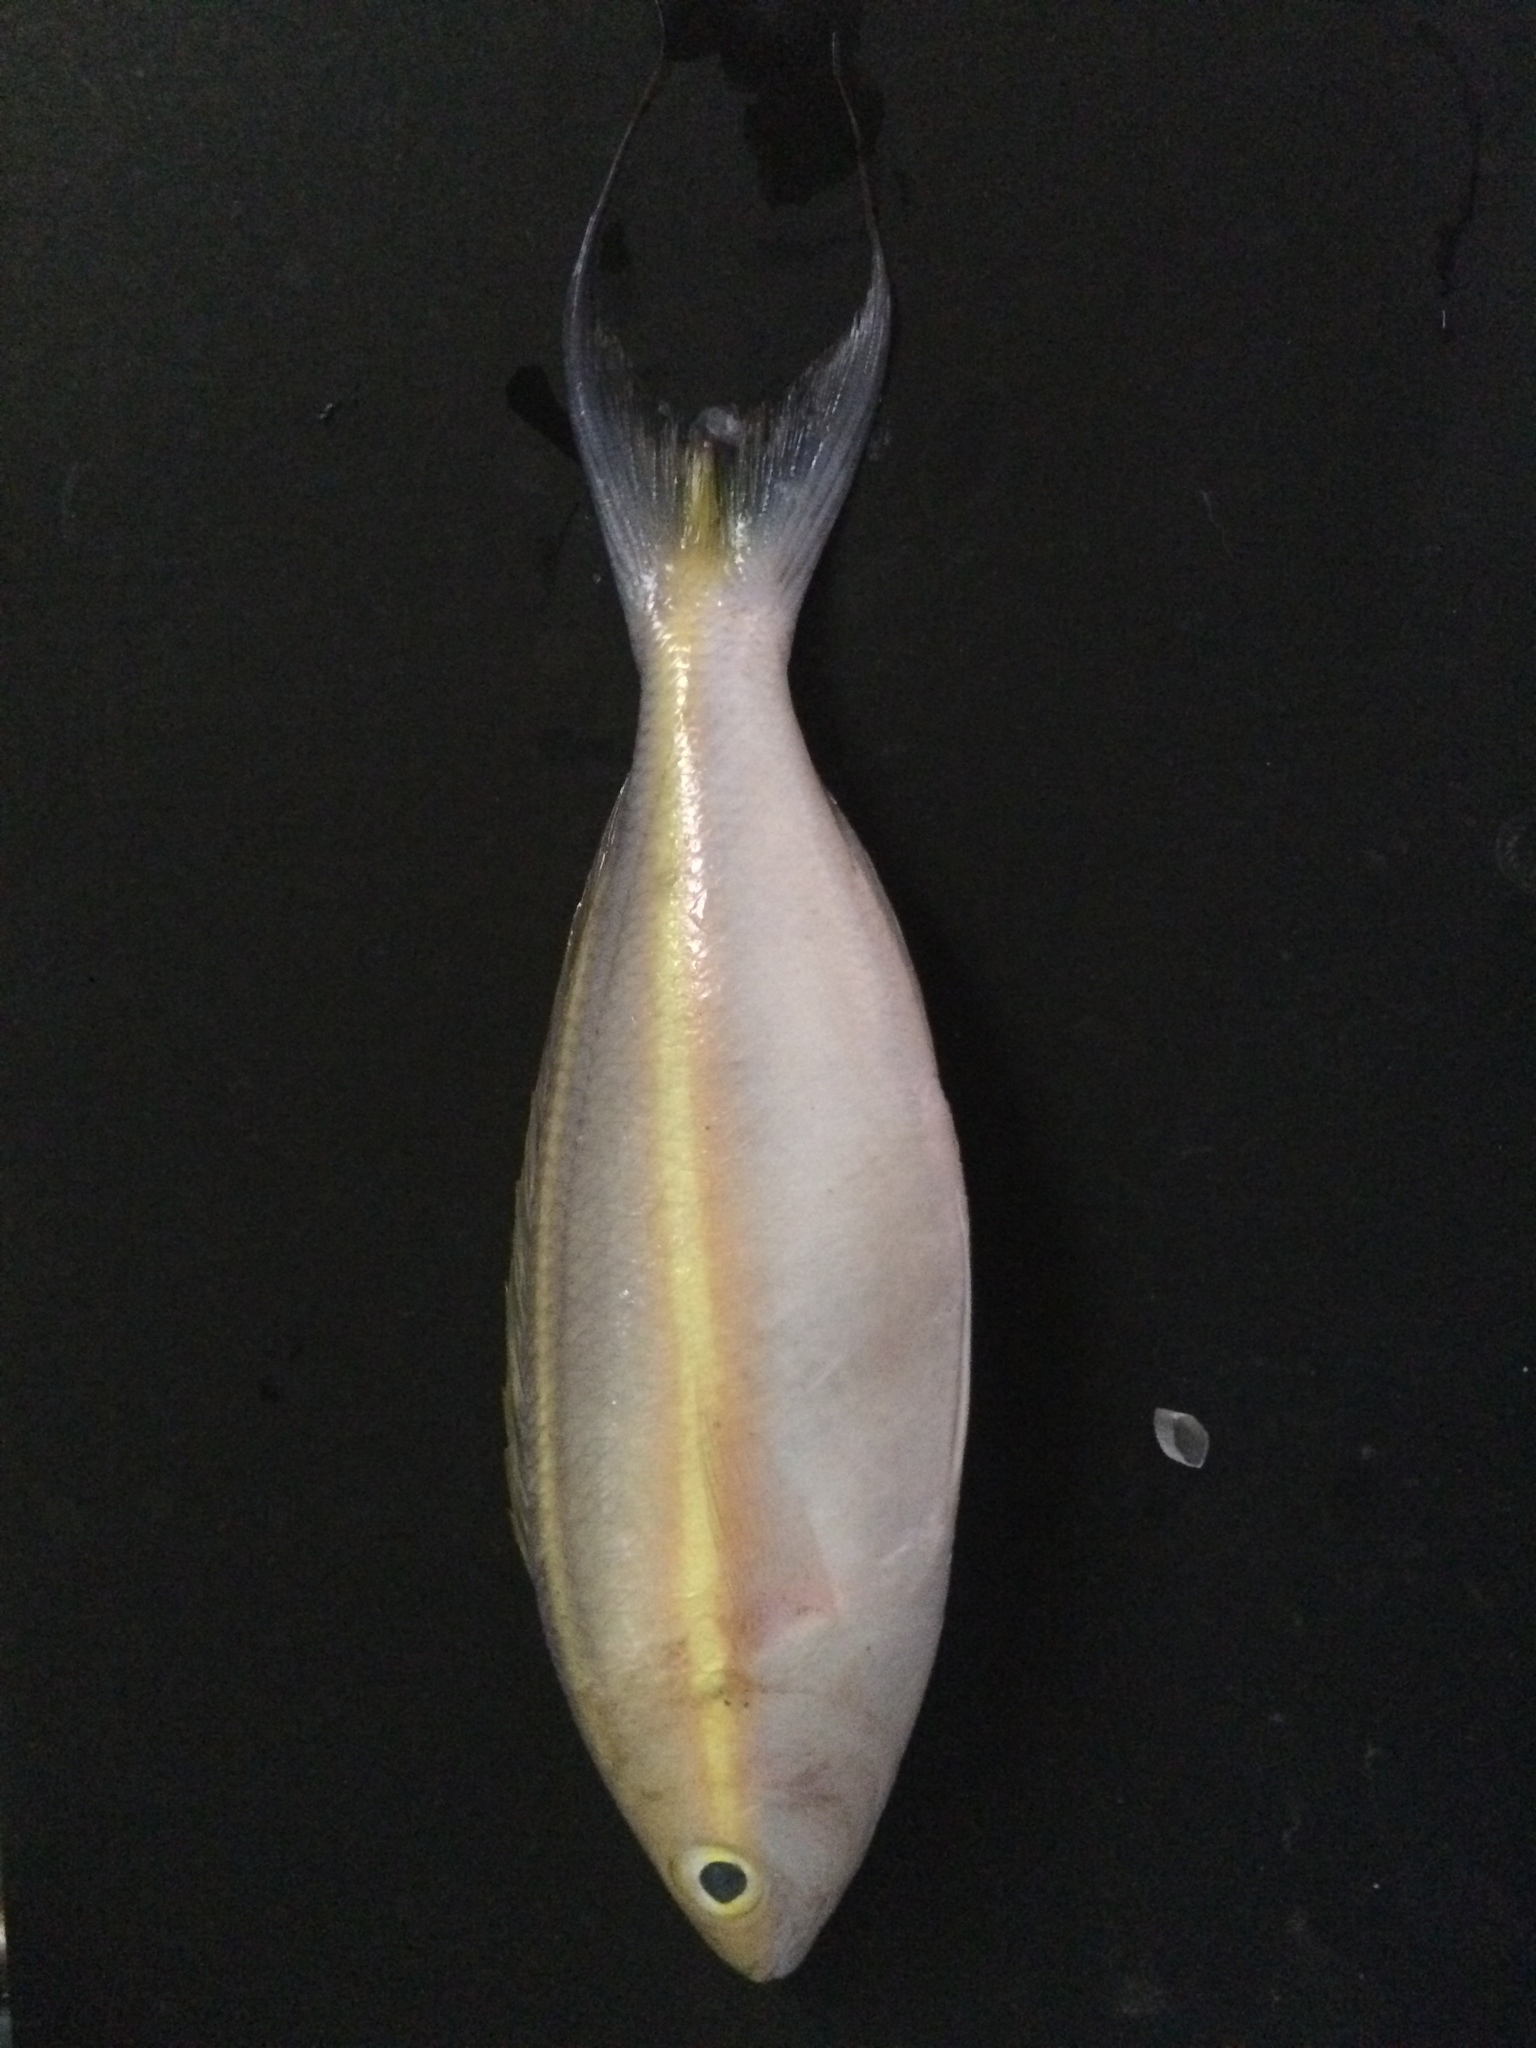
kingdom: Animalia
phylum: Chordata
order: Perciformes
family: Nemipteridae
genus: Pentapodus
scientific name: Pentapodus emeryii
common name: Double whiptail
